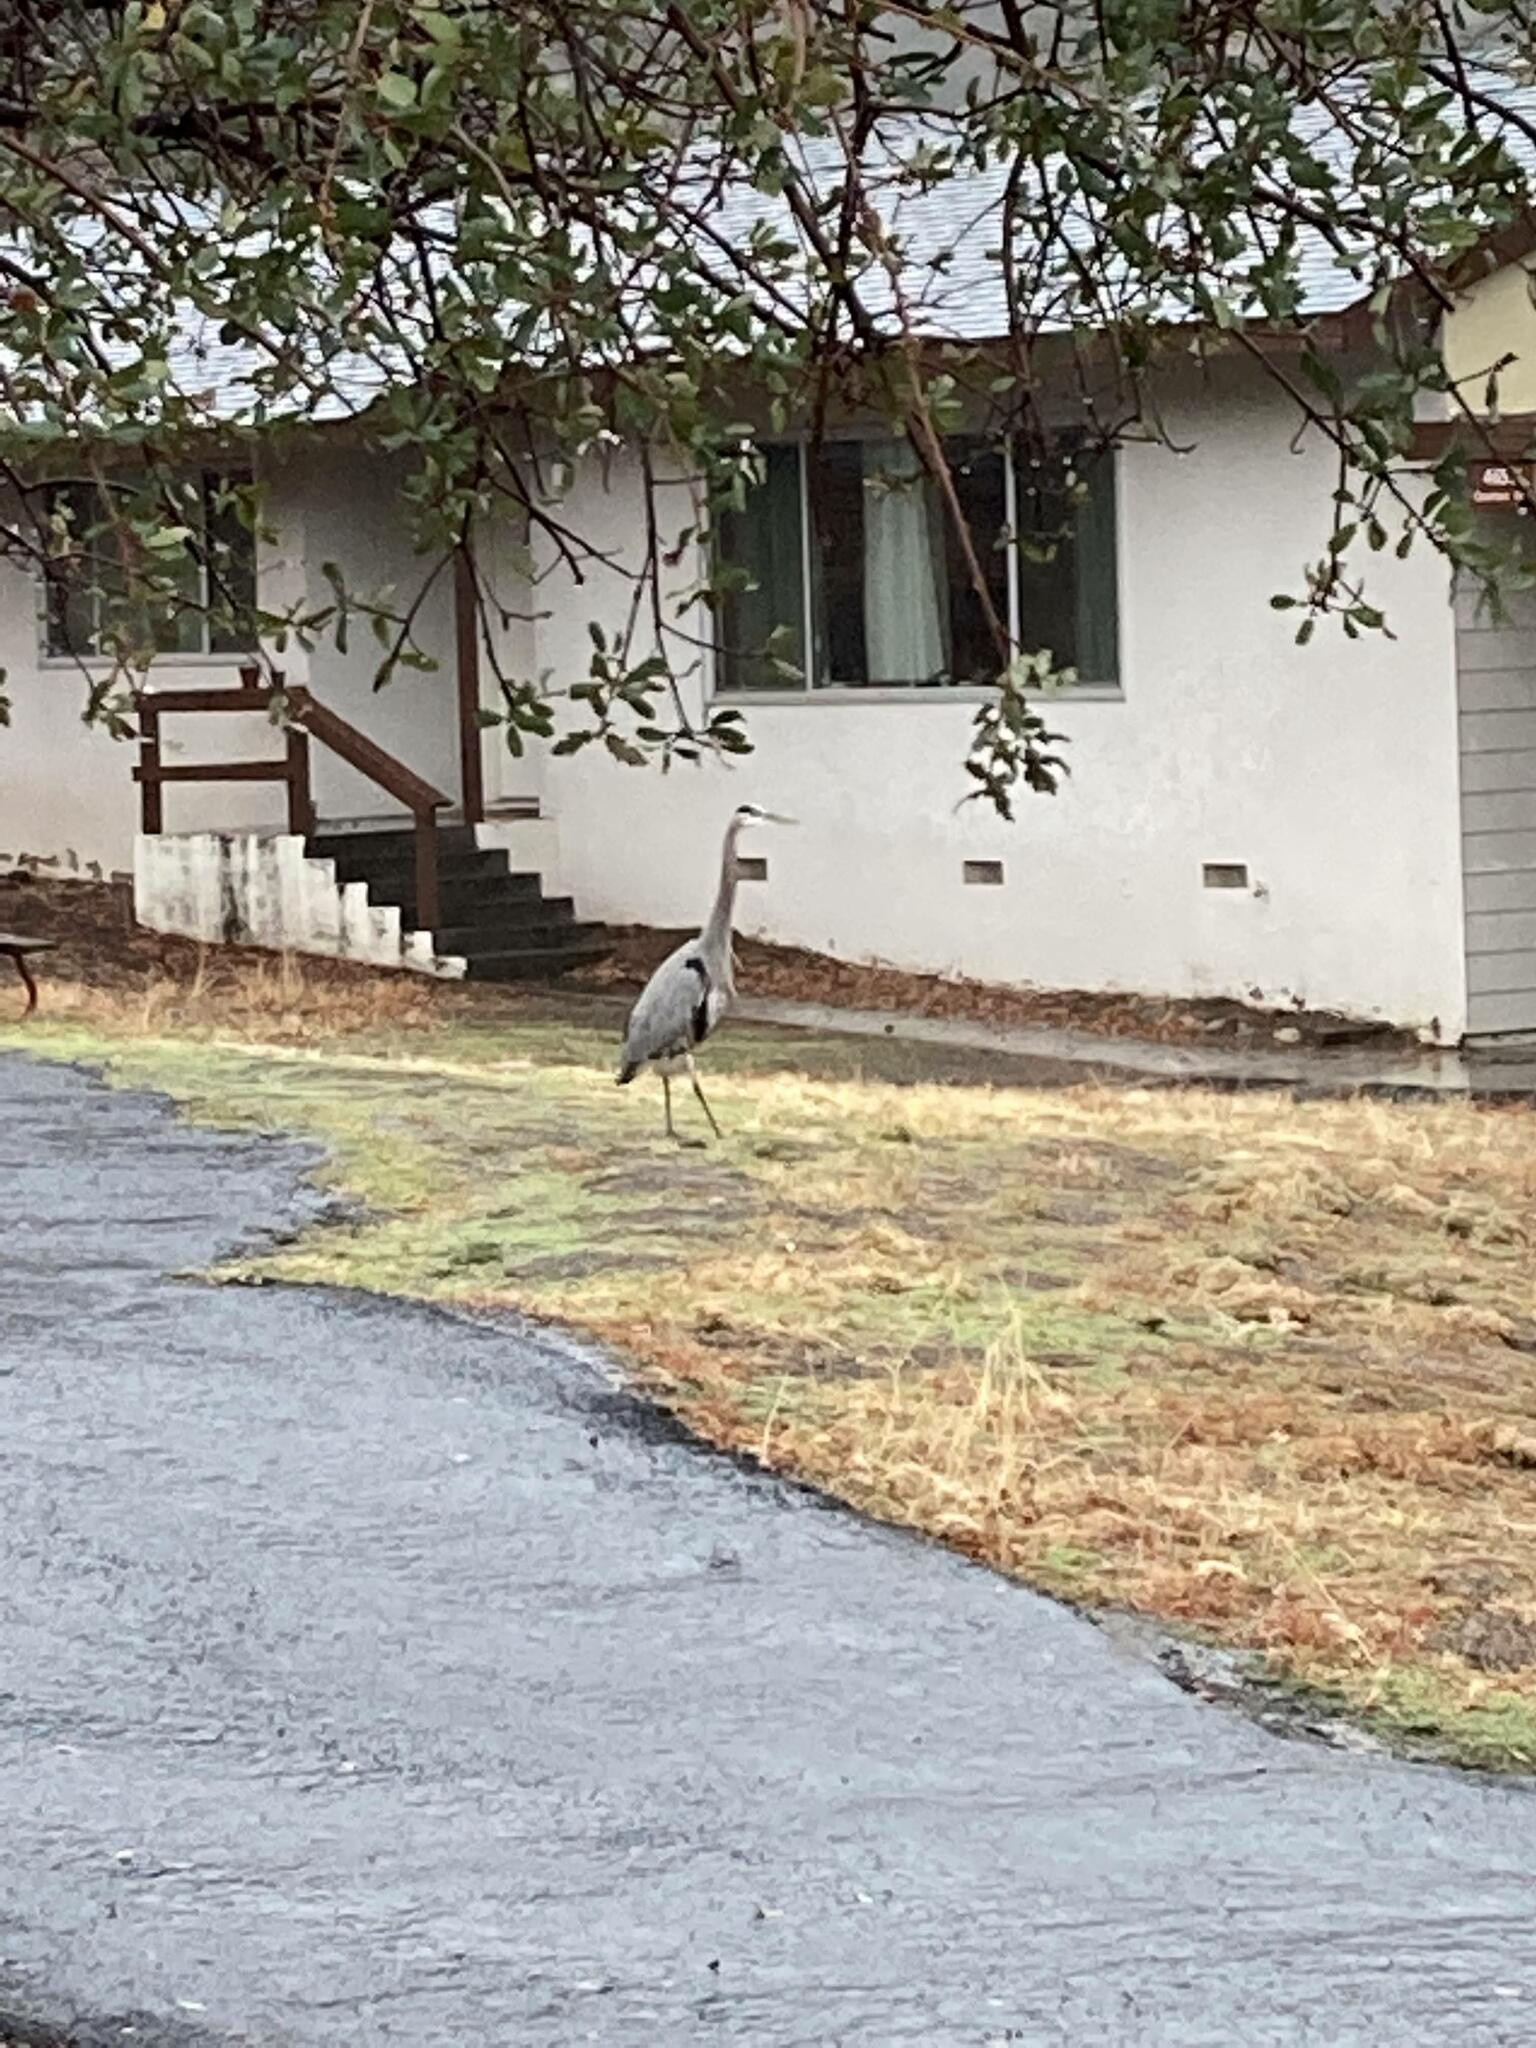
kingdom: Animalia
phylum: Chordata
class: Aves
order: Pelecaniformes
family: Ardeidae
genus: Ardea
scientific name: Ardea herodias
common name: Great blue heron
